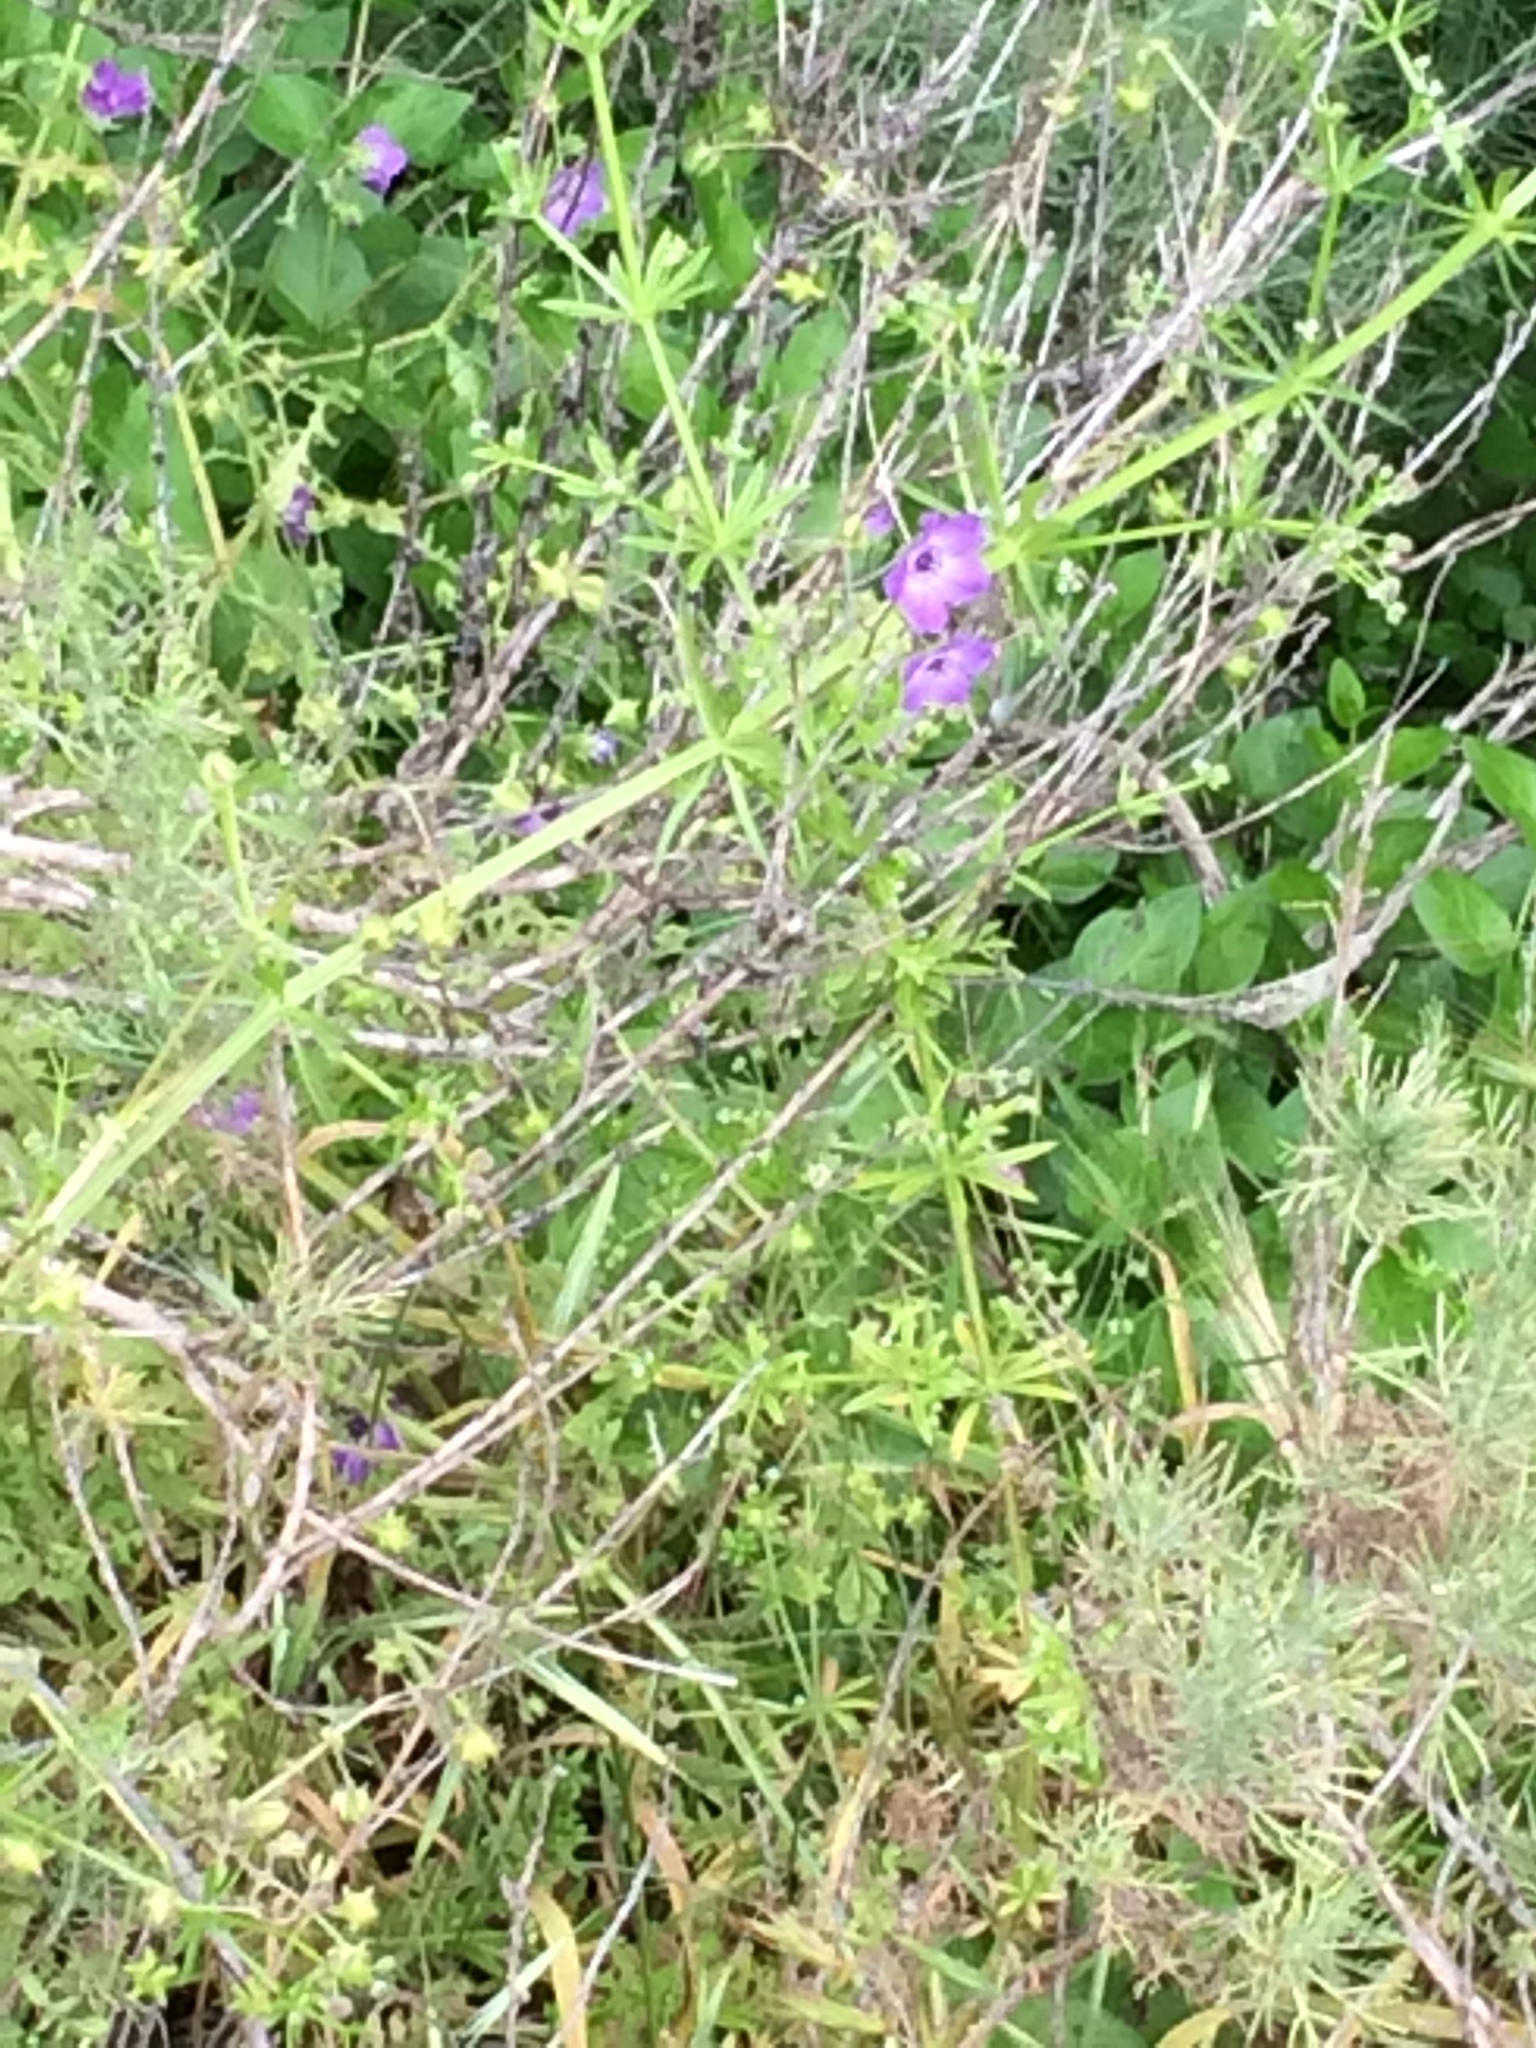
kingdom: Plantae
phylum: Tracheophyta
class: Magnoliopsida
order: Boraginales
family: Hydrophyllaceae
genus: Pholistoma
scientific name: Pholistoma auritum
